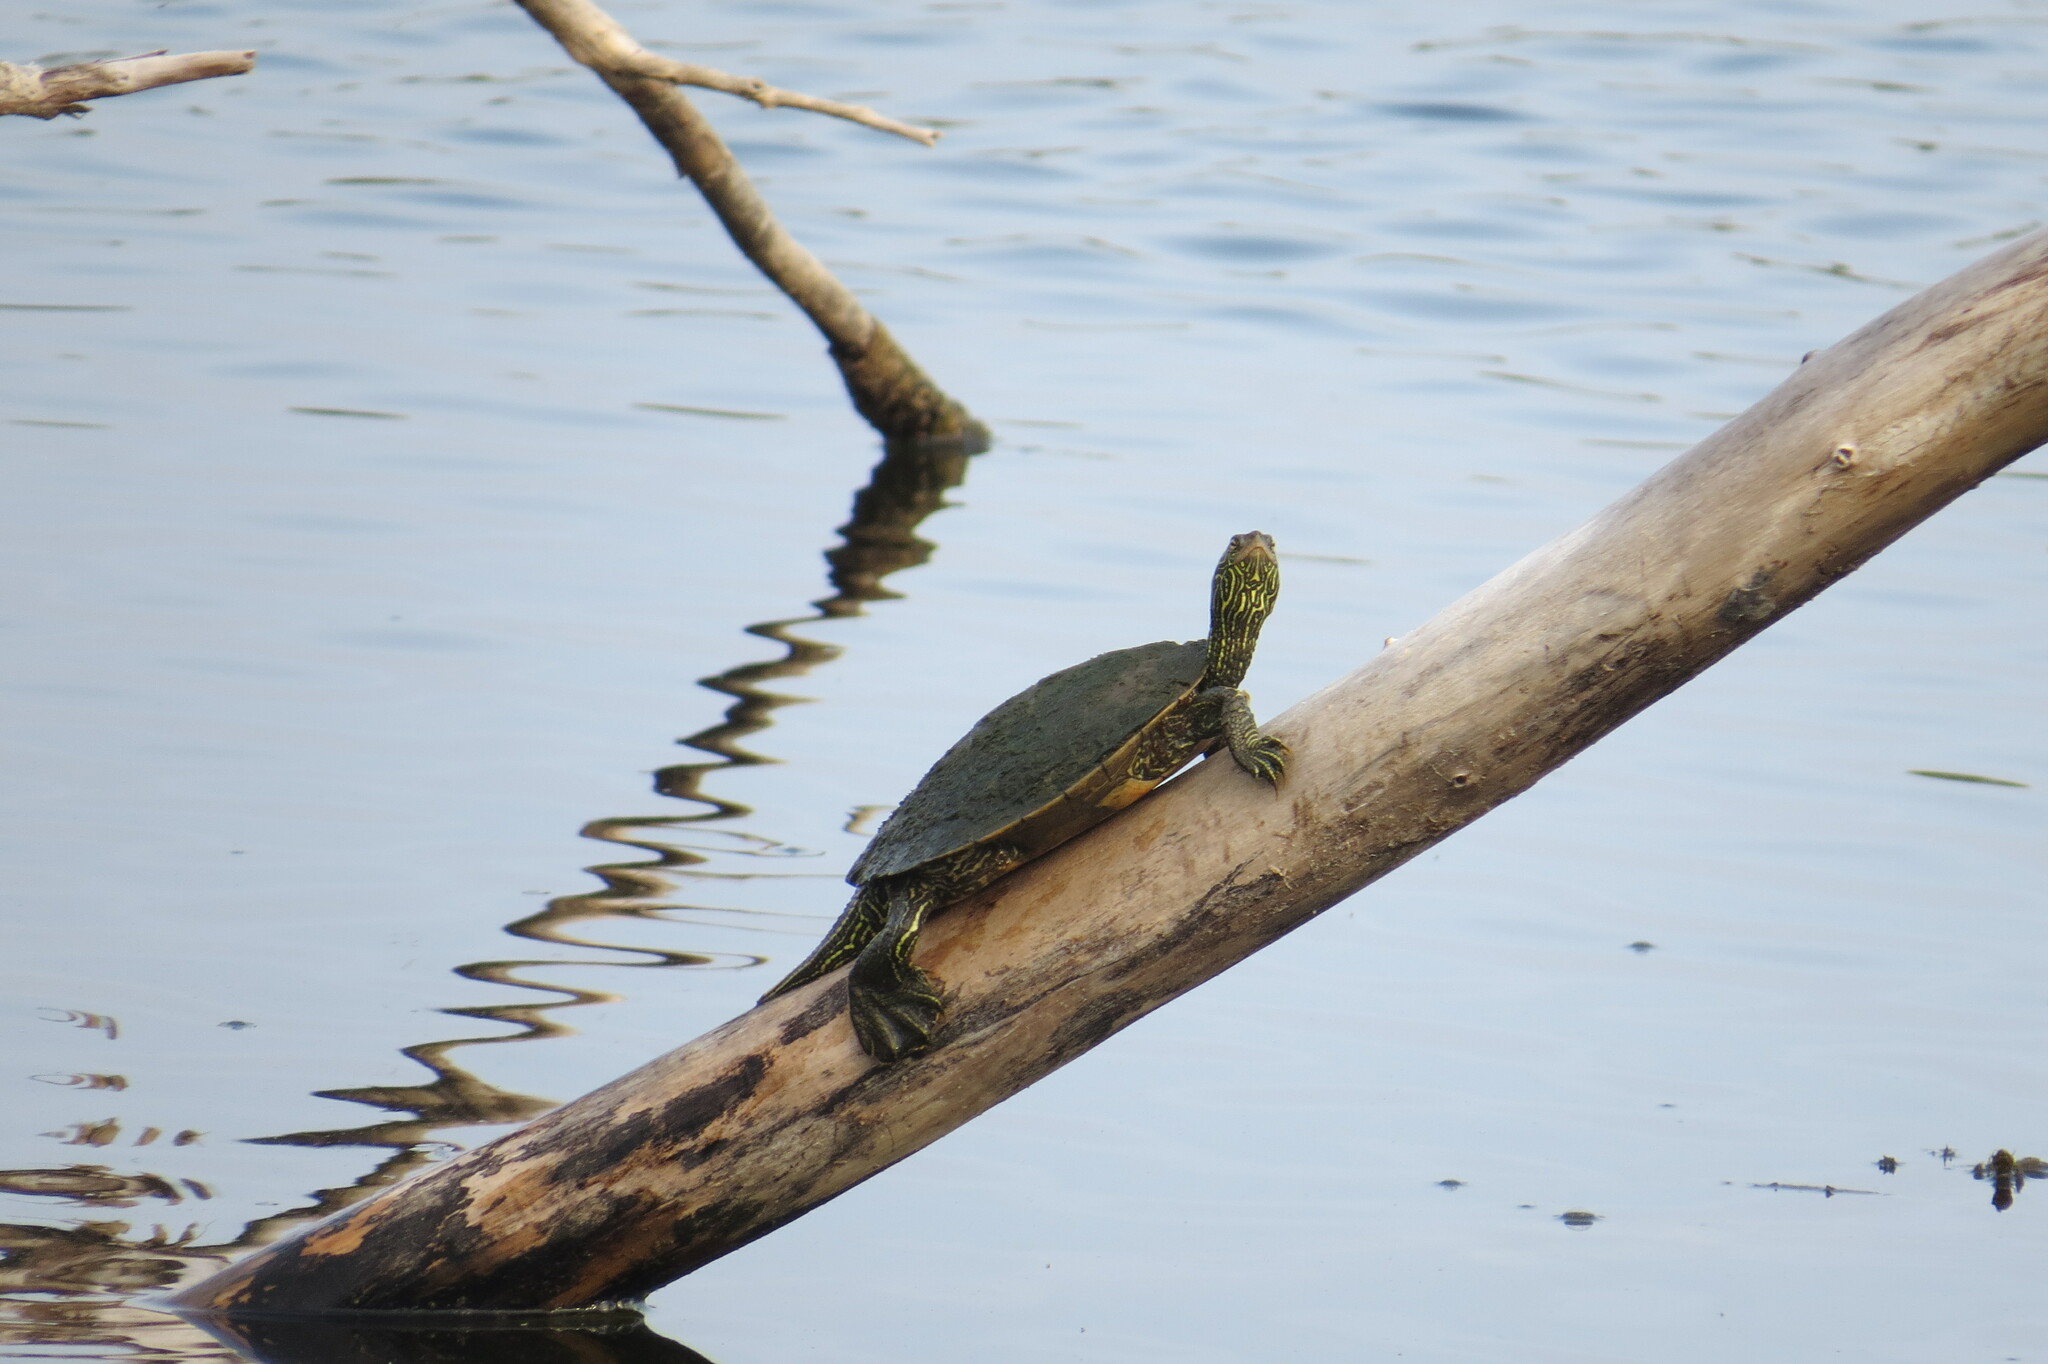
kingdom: Animalia
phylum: Chordata
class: Testudines
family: Emydidae
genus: Graptemys
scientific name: Graptemys geographica
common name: Common map turtle
